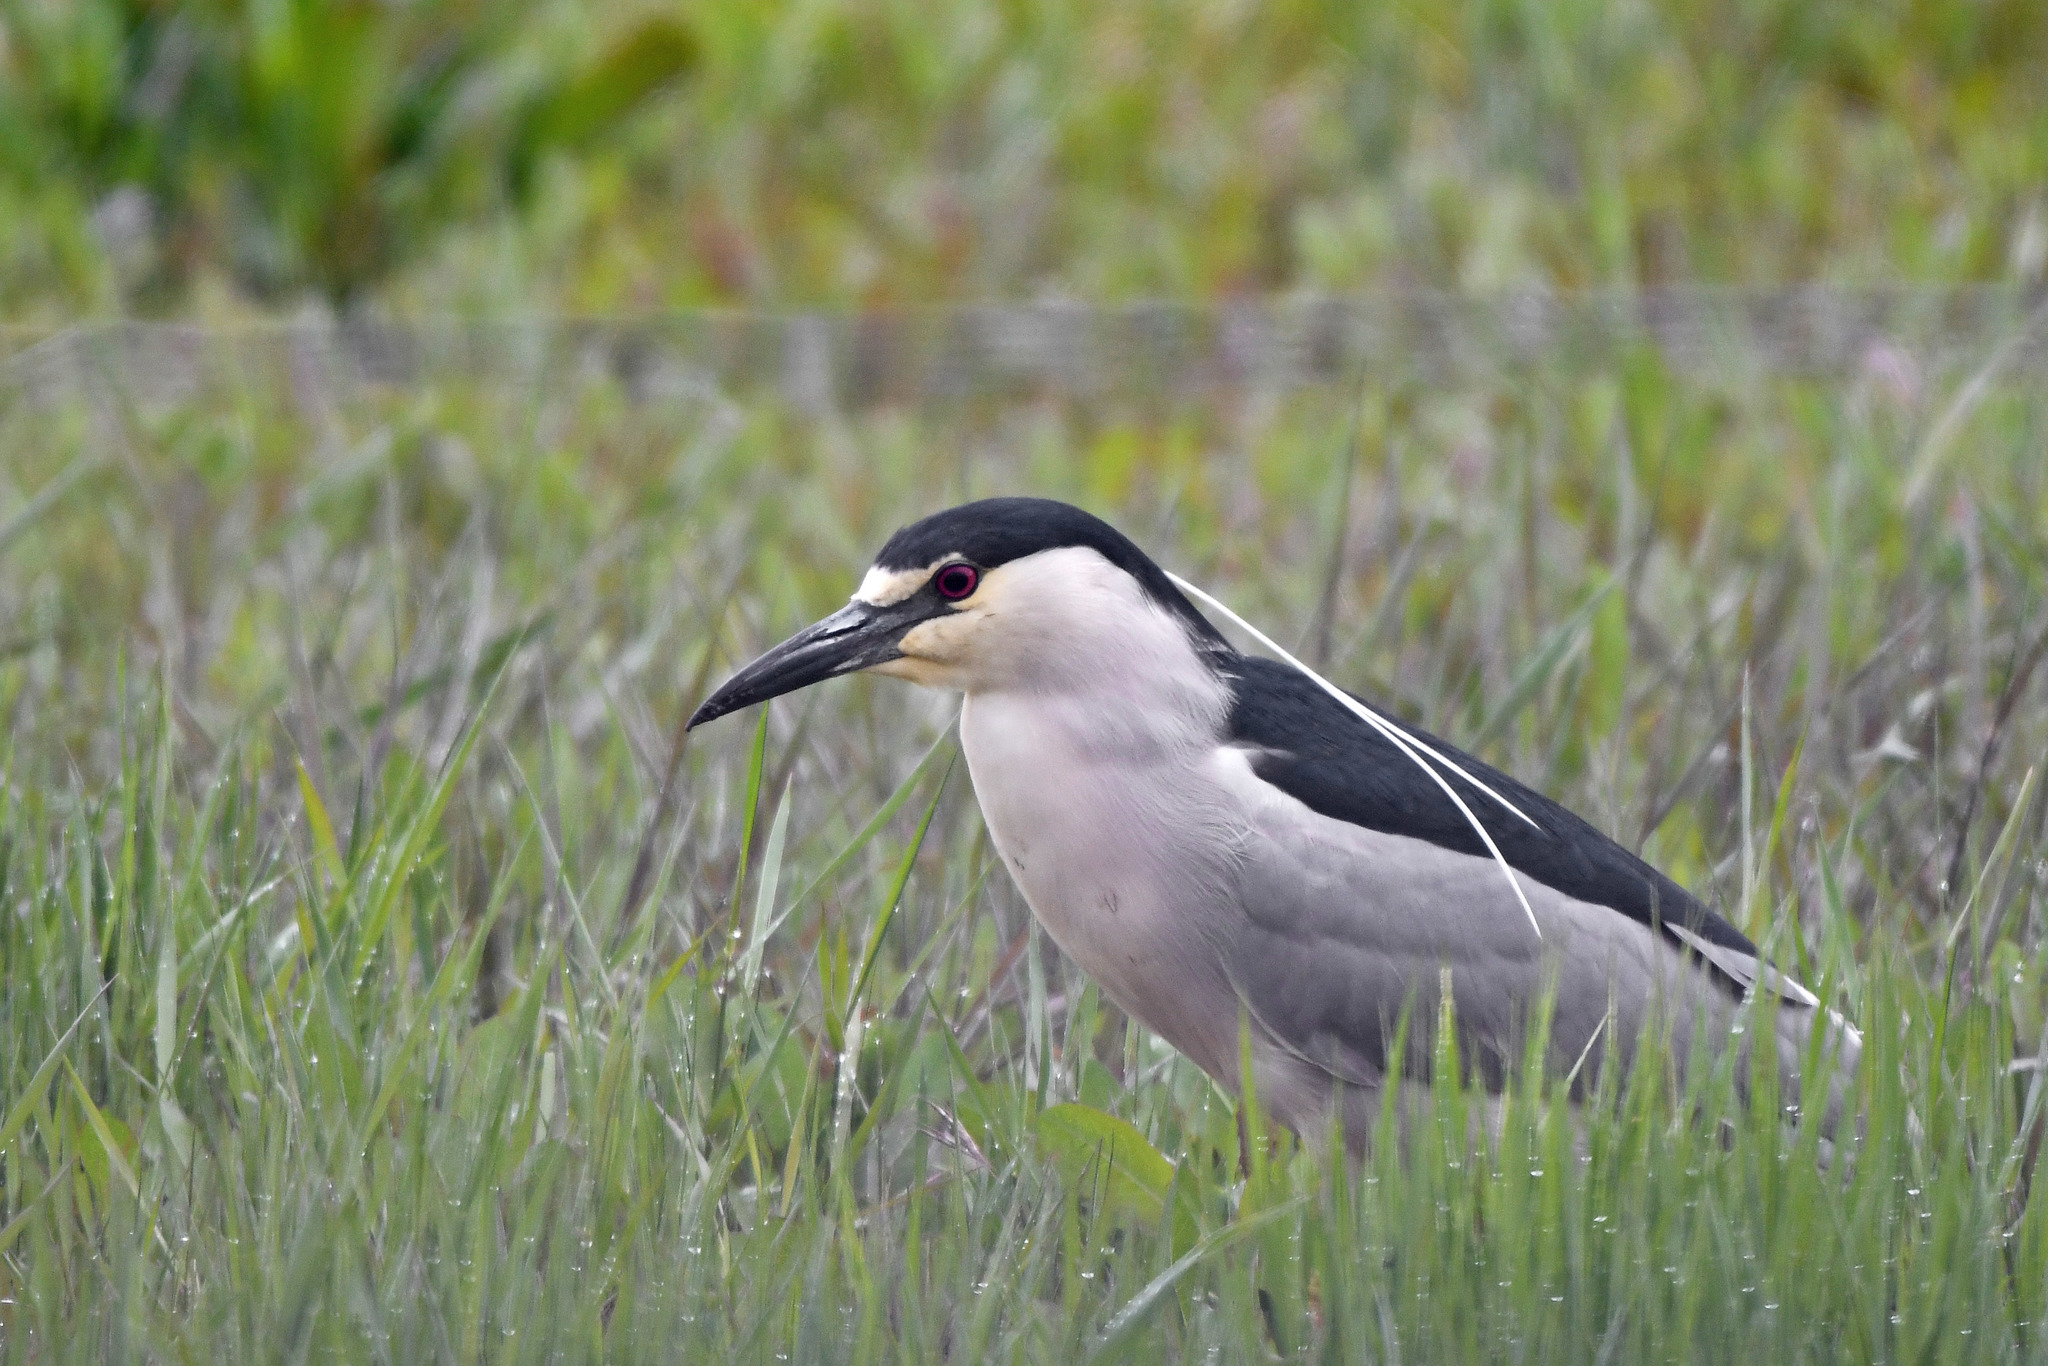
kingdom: Animalia
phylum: Chordata
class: Aves
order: Pelecaniformes
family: Ardeidae
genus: Nycticorax
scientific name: Nycticorax nycticorax
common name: Black-crowned night heron
